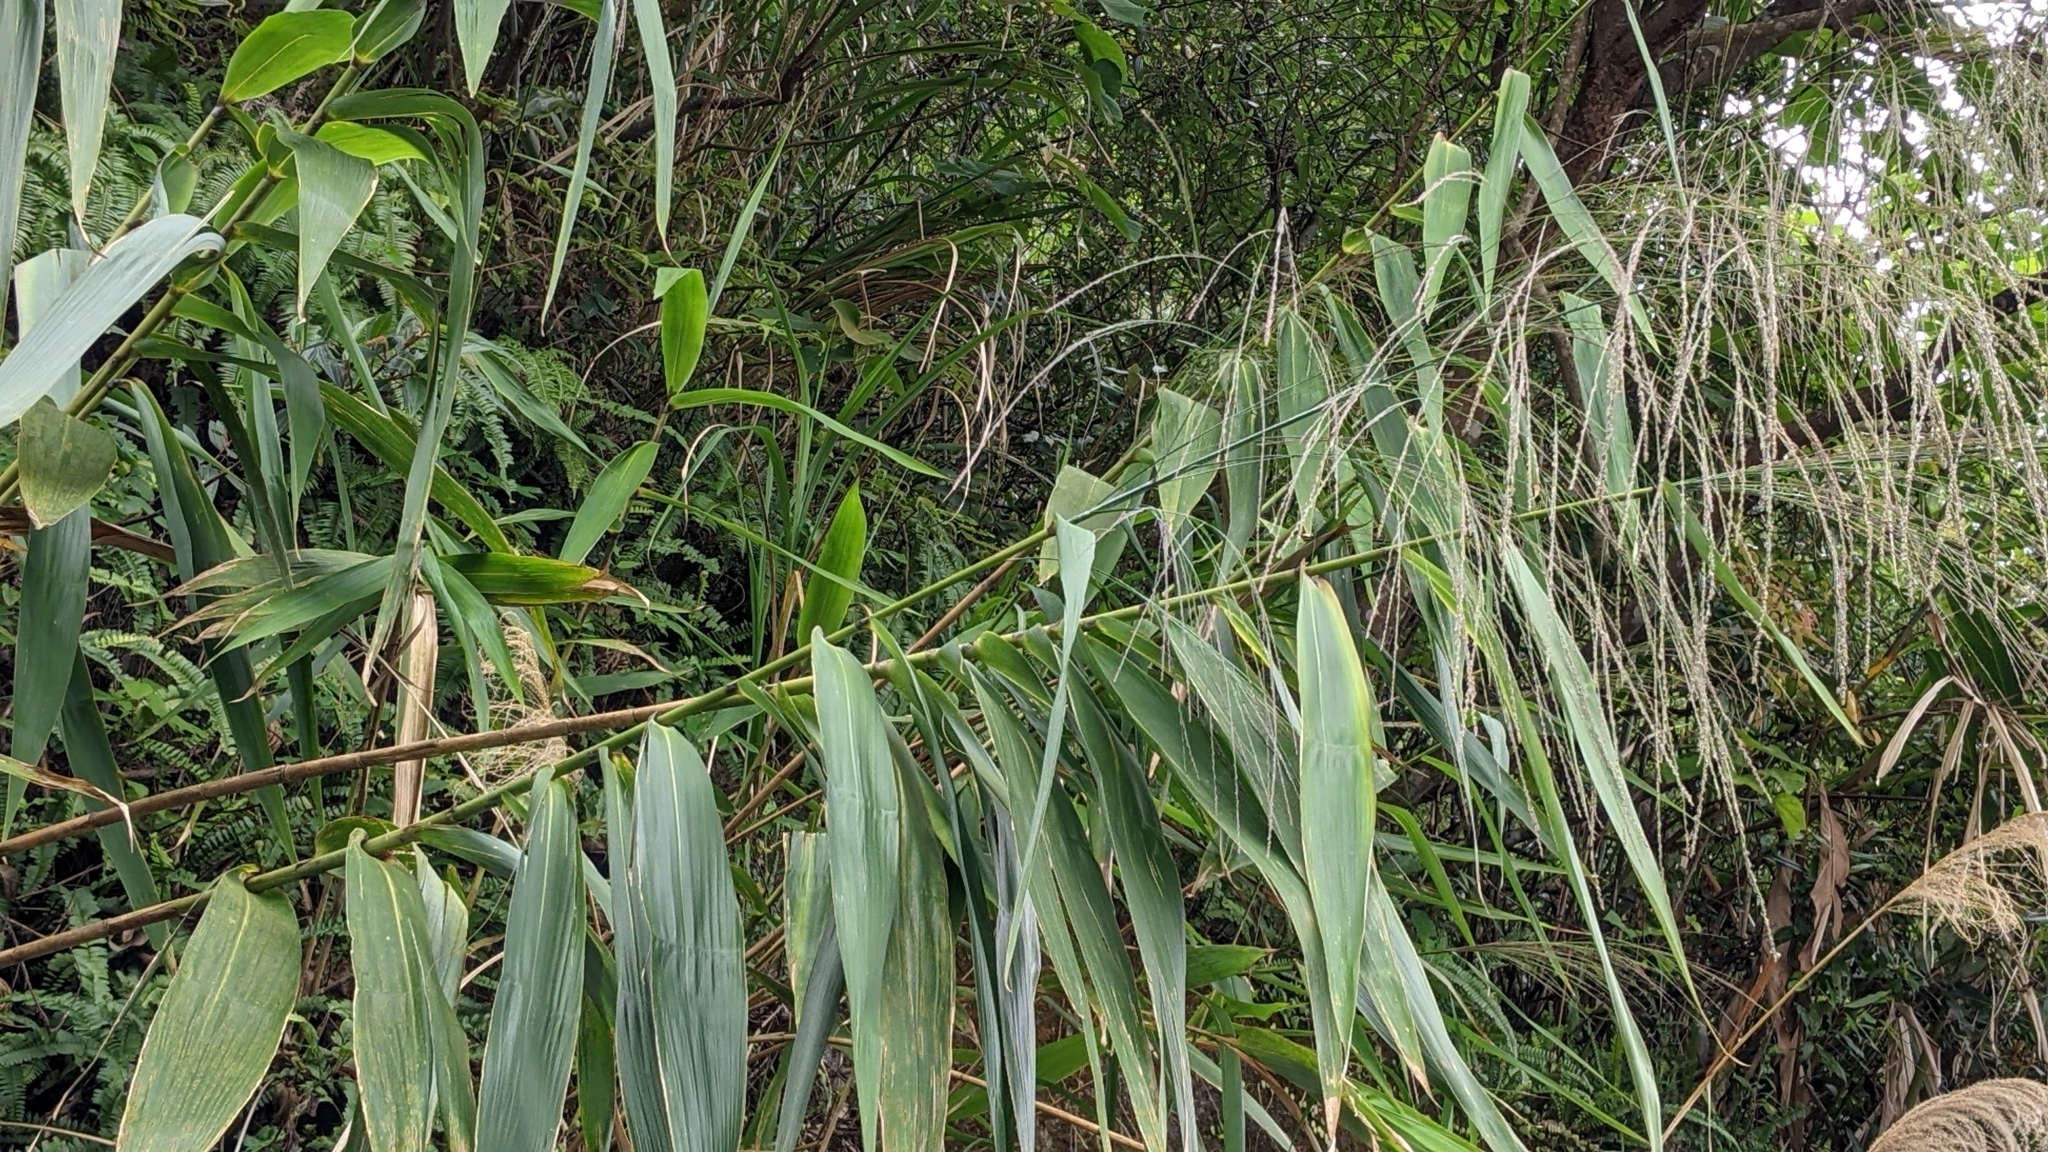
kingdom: Plantae
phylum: Tracheophyta
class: Liliopsida
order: Poales
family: Poaceae
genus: Thysanolaena
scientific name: Thysanolaena latifolia
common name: Tiger grass
